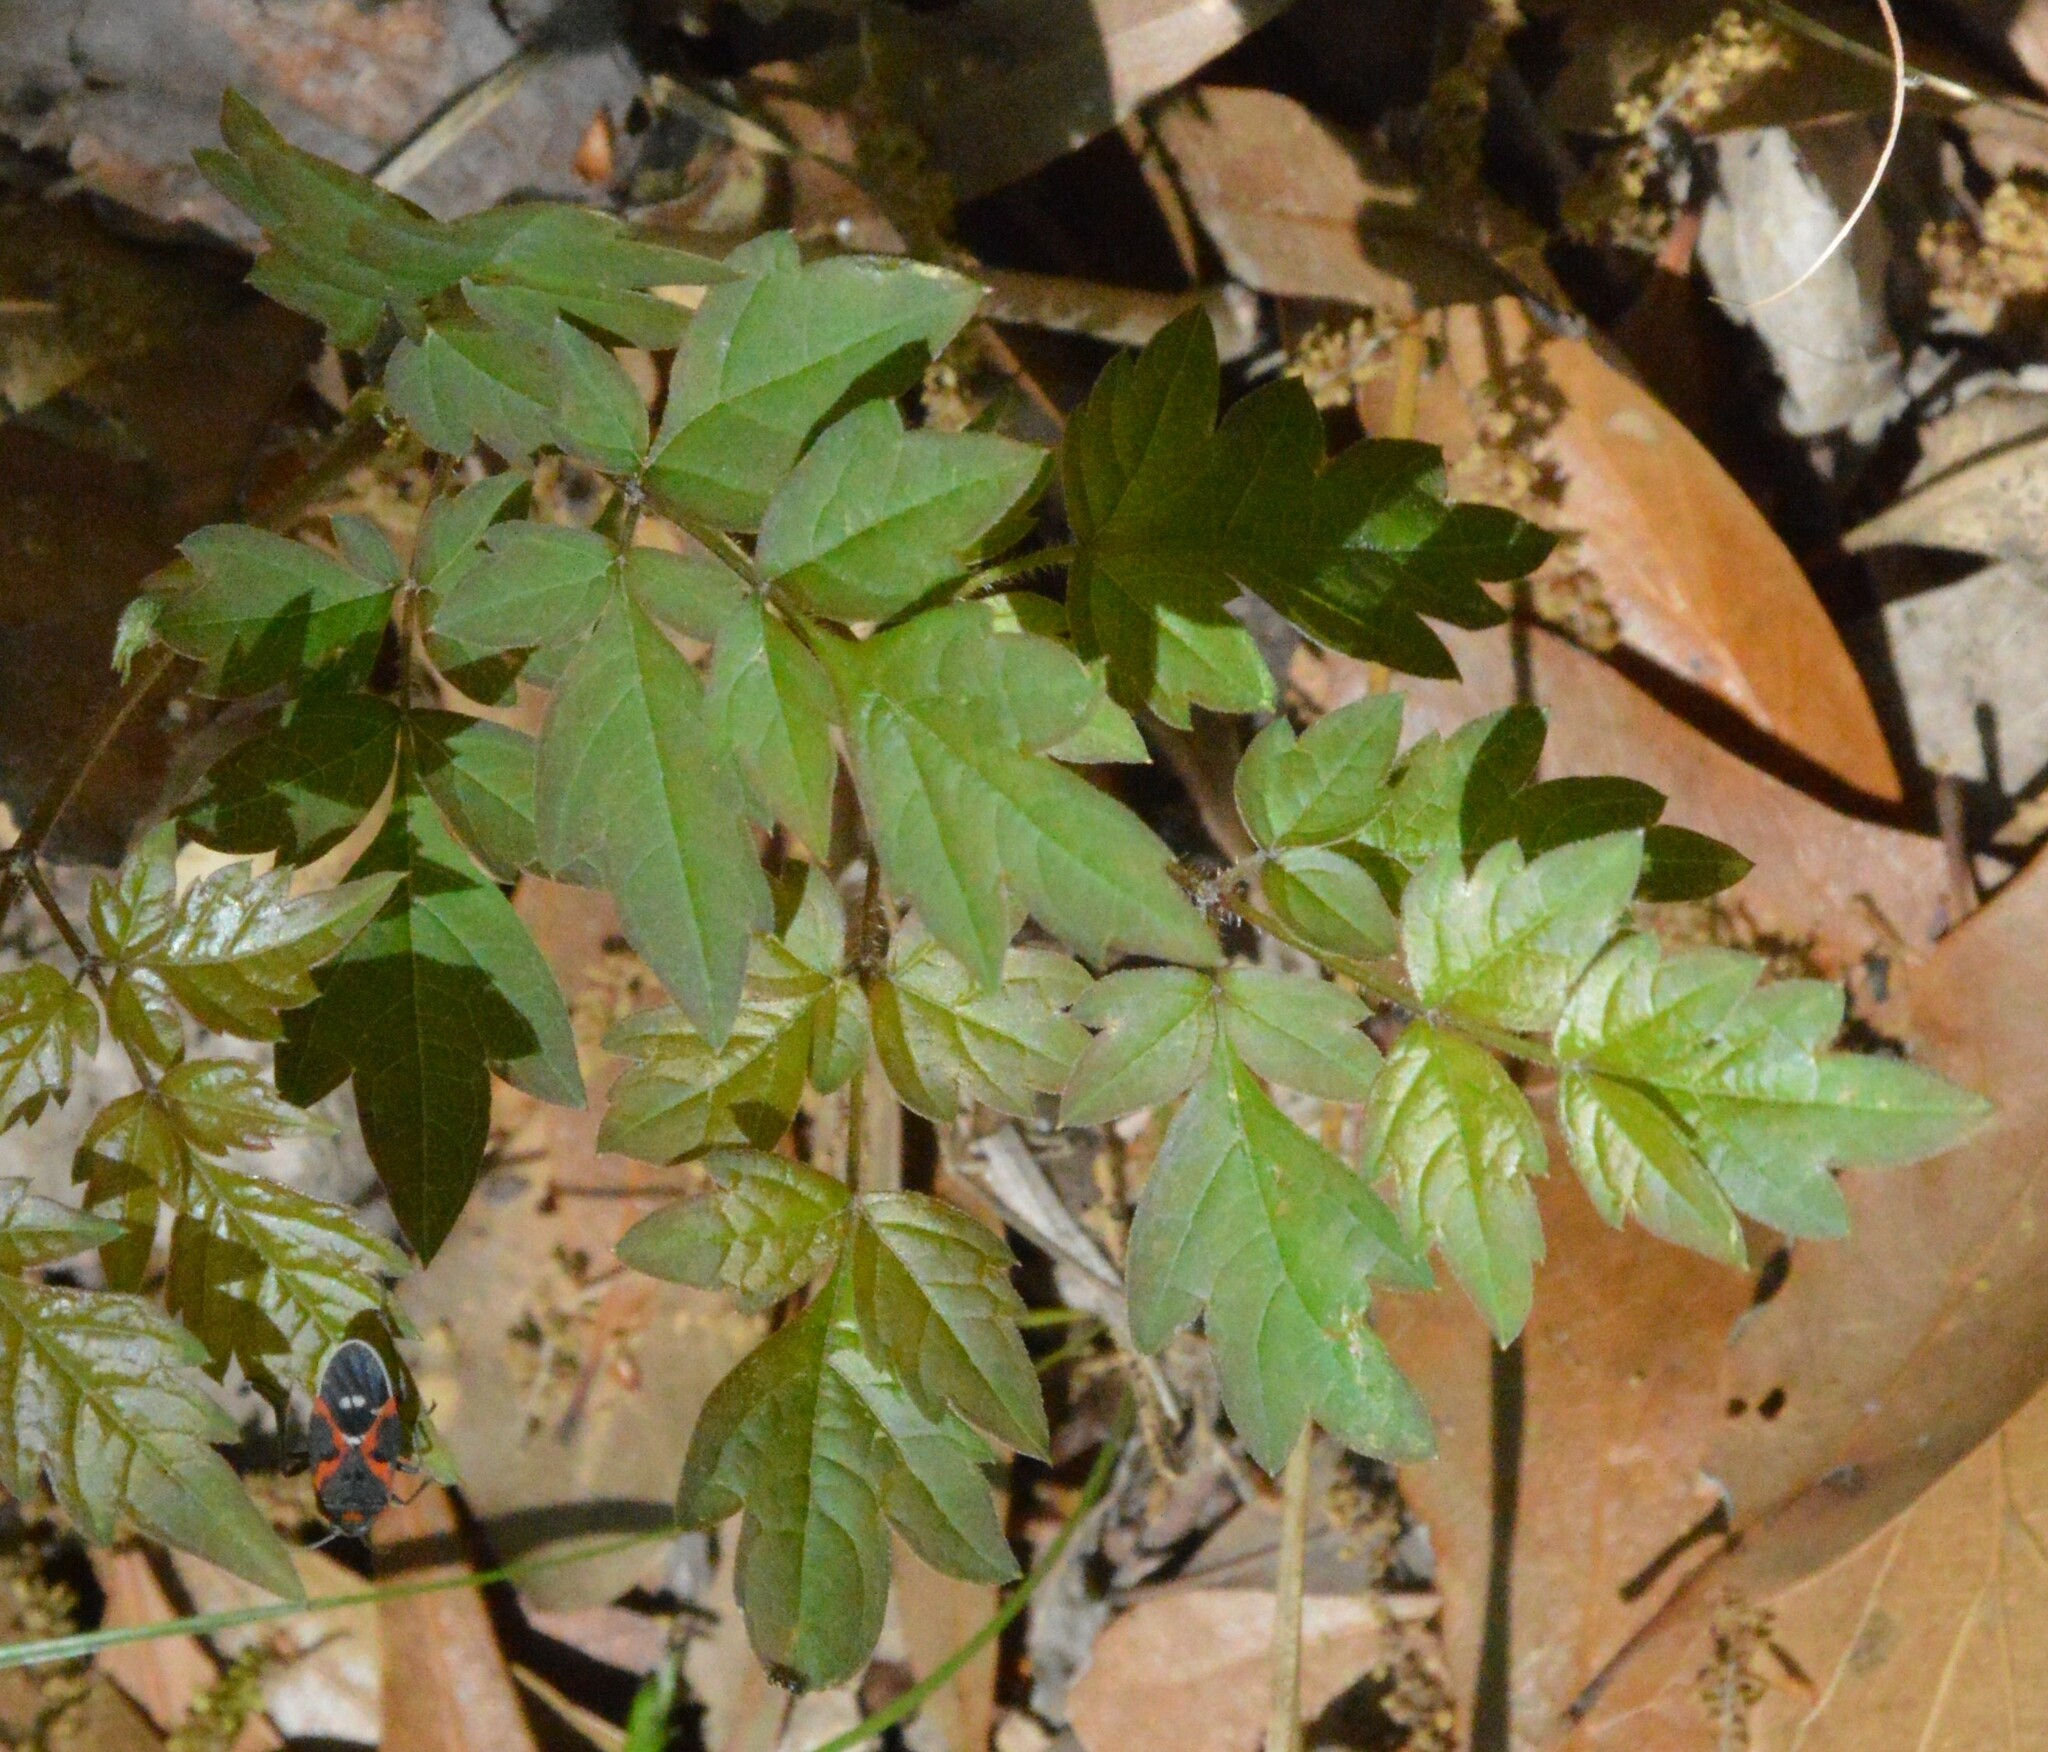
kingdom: Plantae
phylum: Tracheophyta
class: Magnoliopsida
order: Vitales
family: Vitaceae
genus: Nekemias
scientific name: Nekemias arborea
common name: Peppervine
